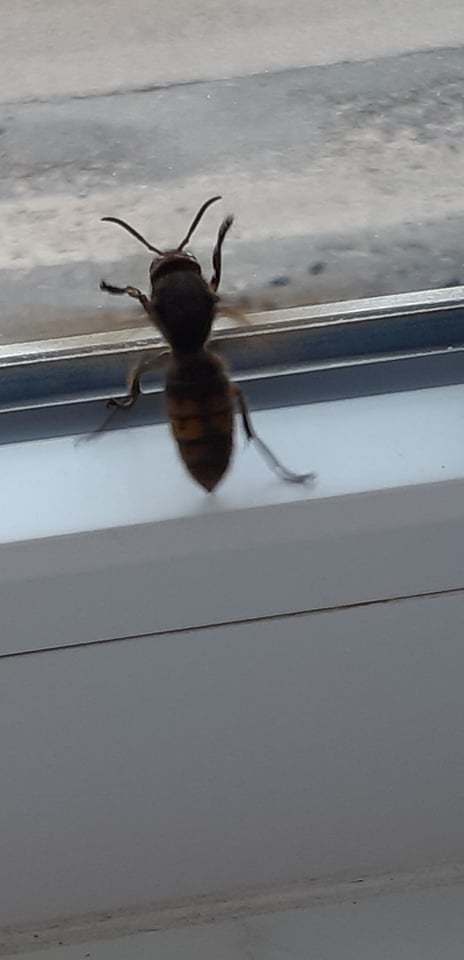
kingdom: Animalia
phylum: Arthropoda
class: Insecta
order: Hymenoptera
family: Vespidae
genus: Vespa
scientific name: Vespa crabro
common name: Hornet
